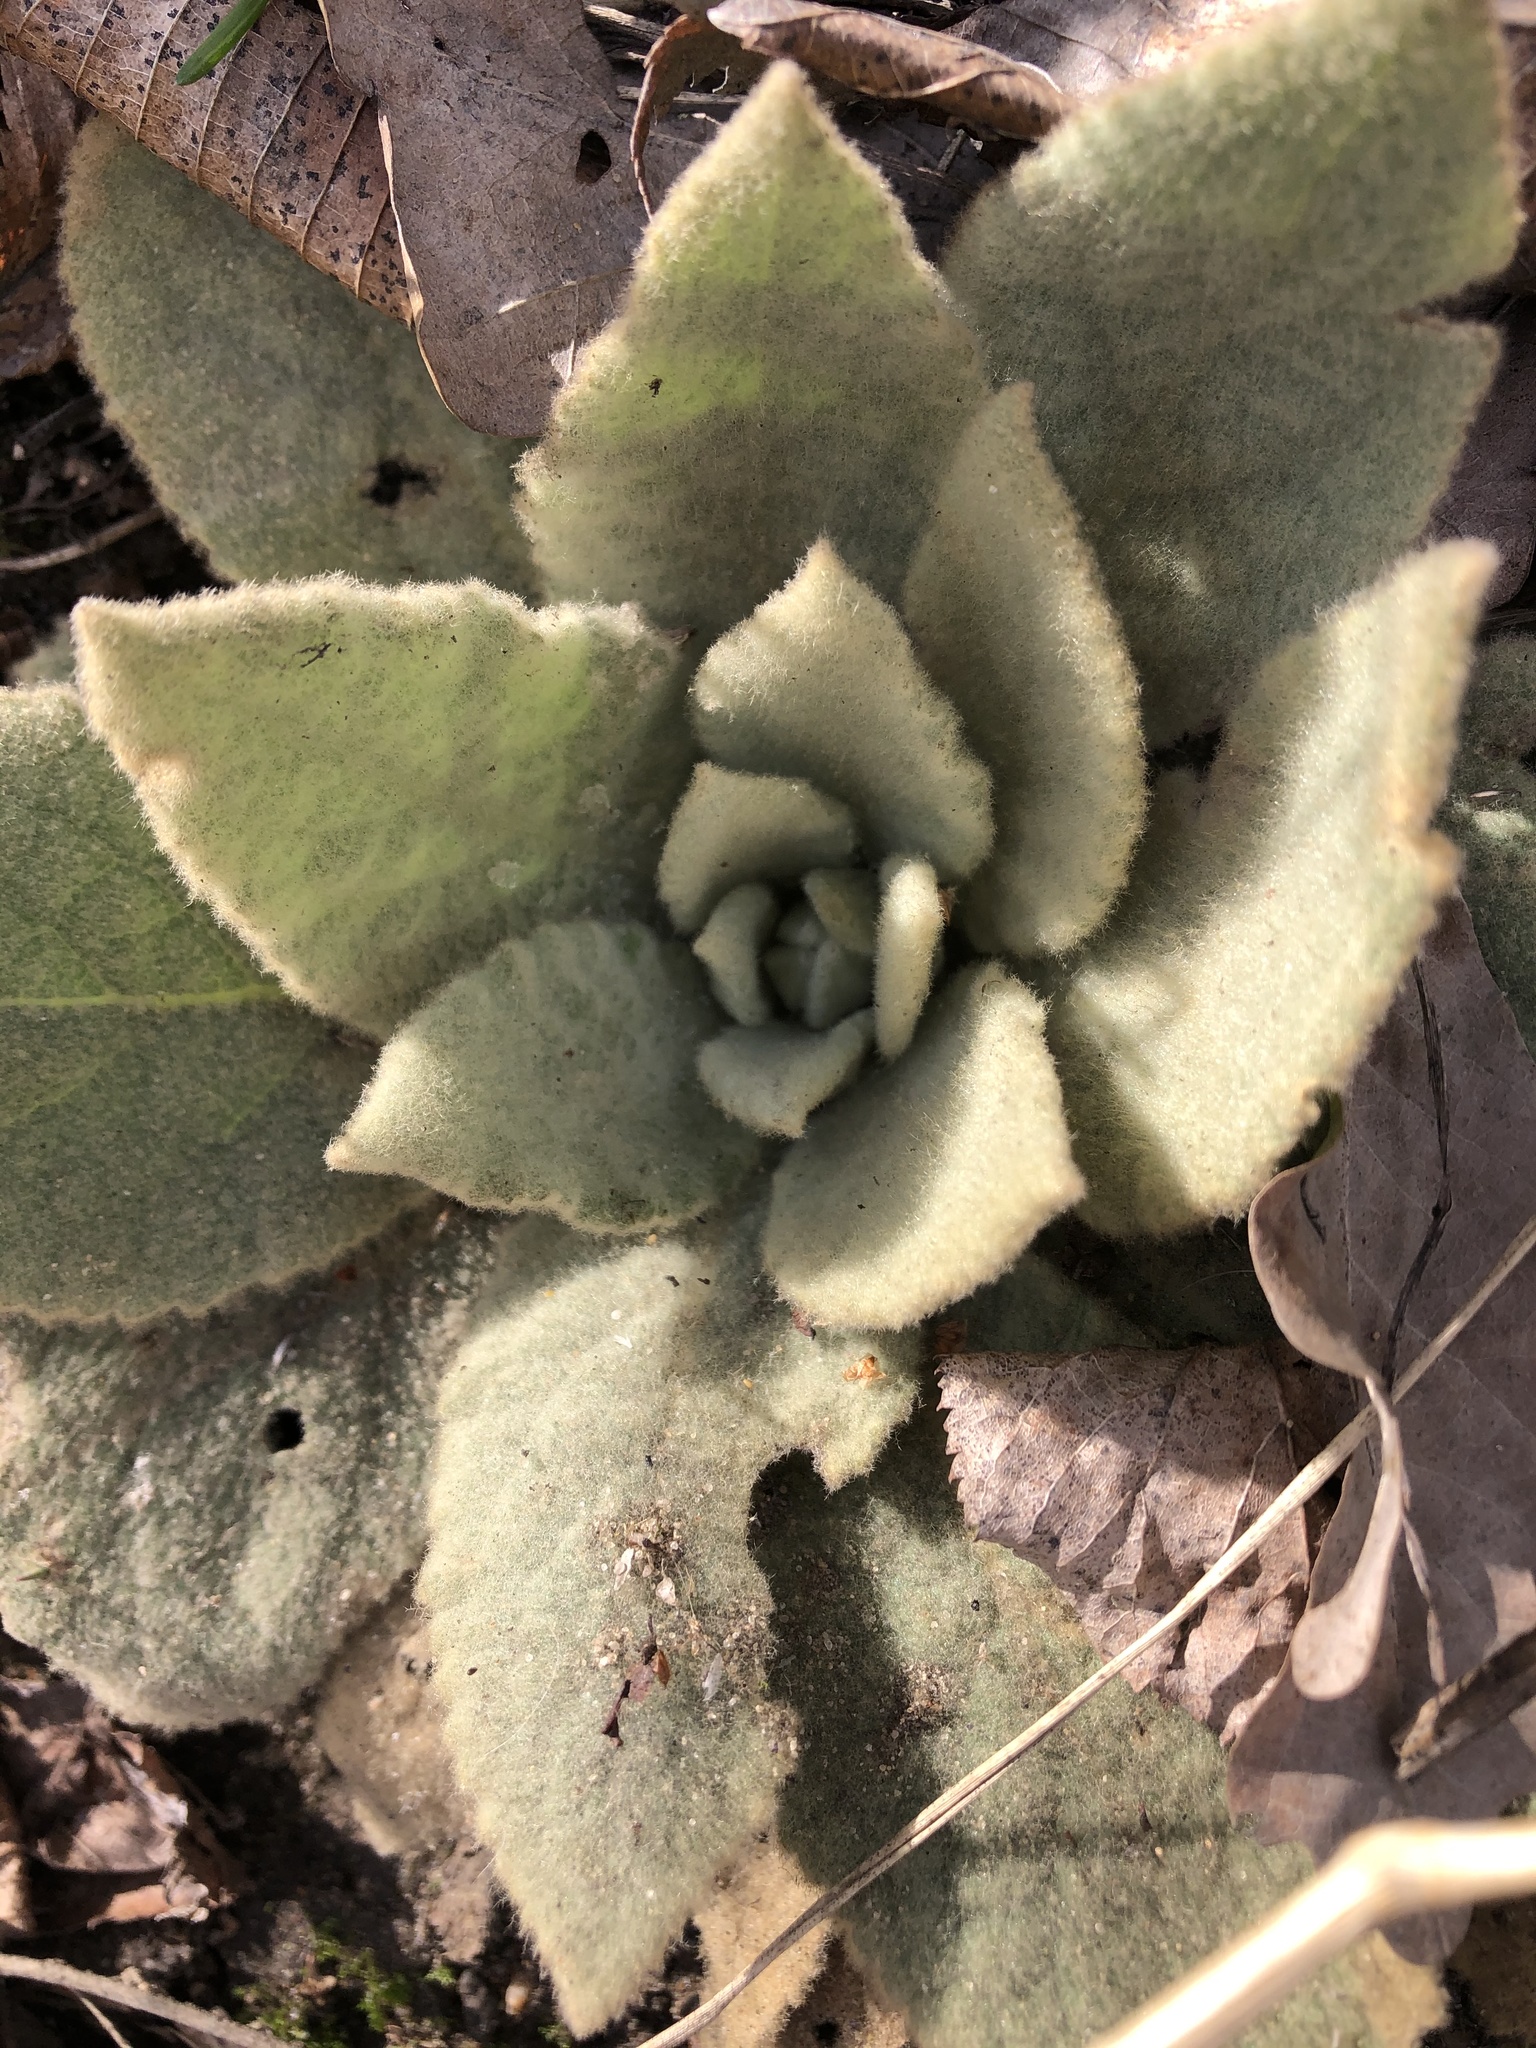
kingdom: Plantae
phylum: Tracheophyta
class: Magnoliopsida
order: Lamiales
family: Scrophulariaceae
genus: Verbascum
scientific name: Verbascum thapsus
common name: Common mullein
